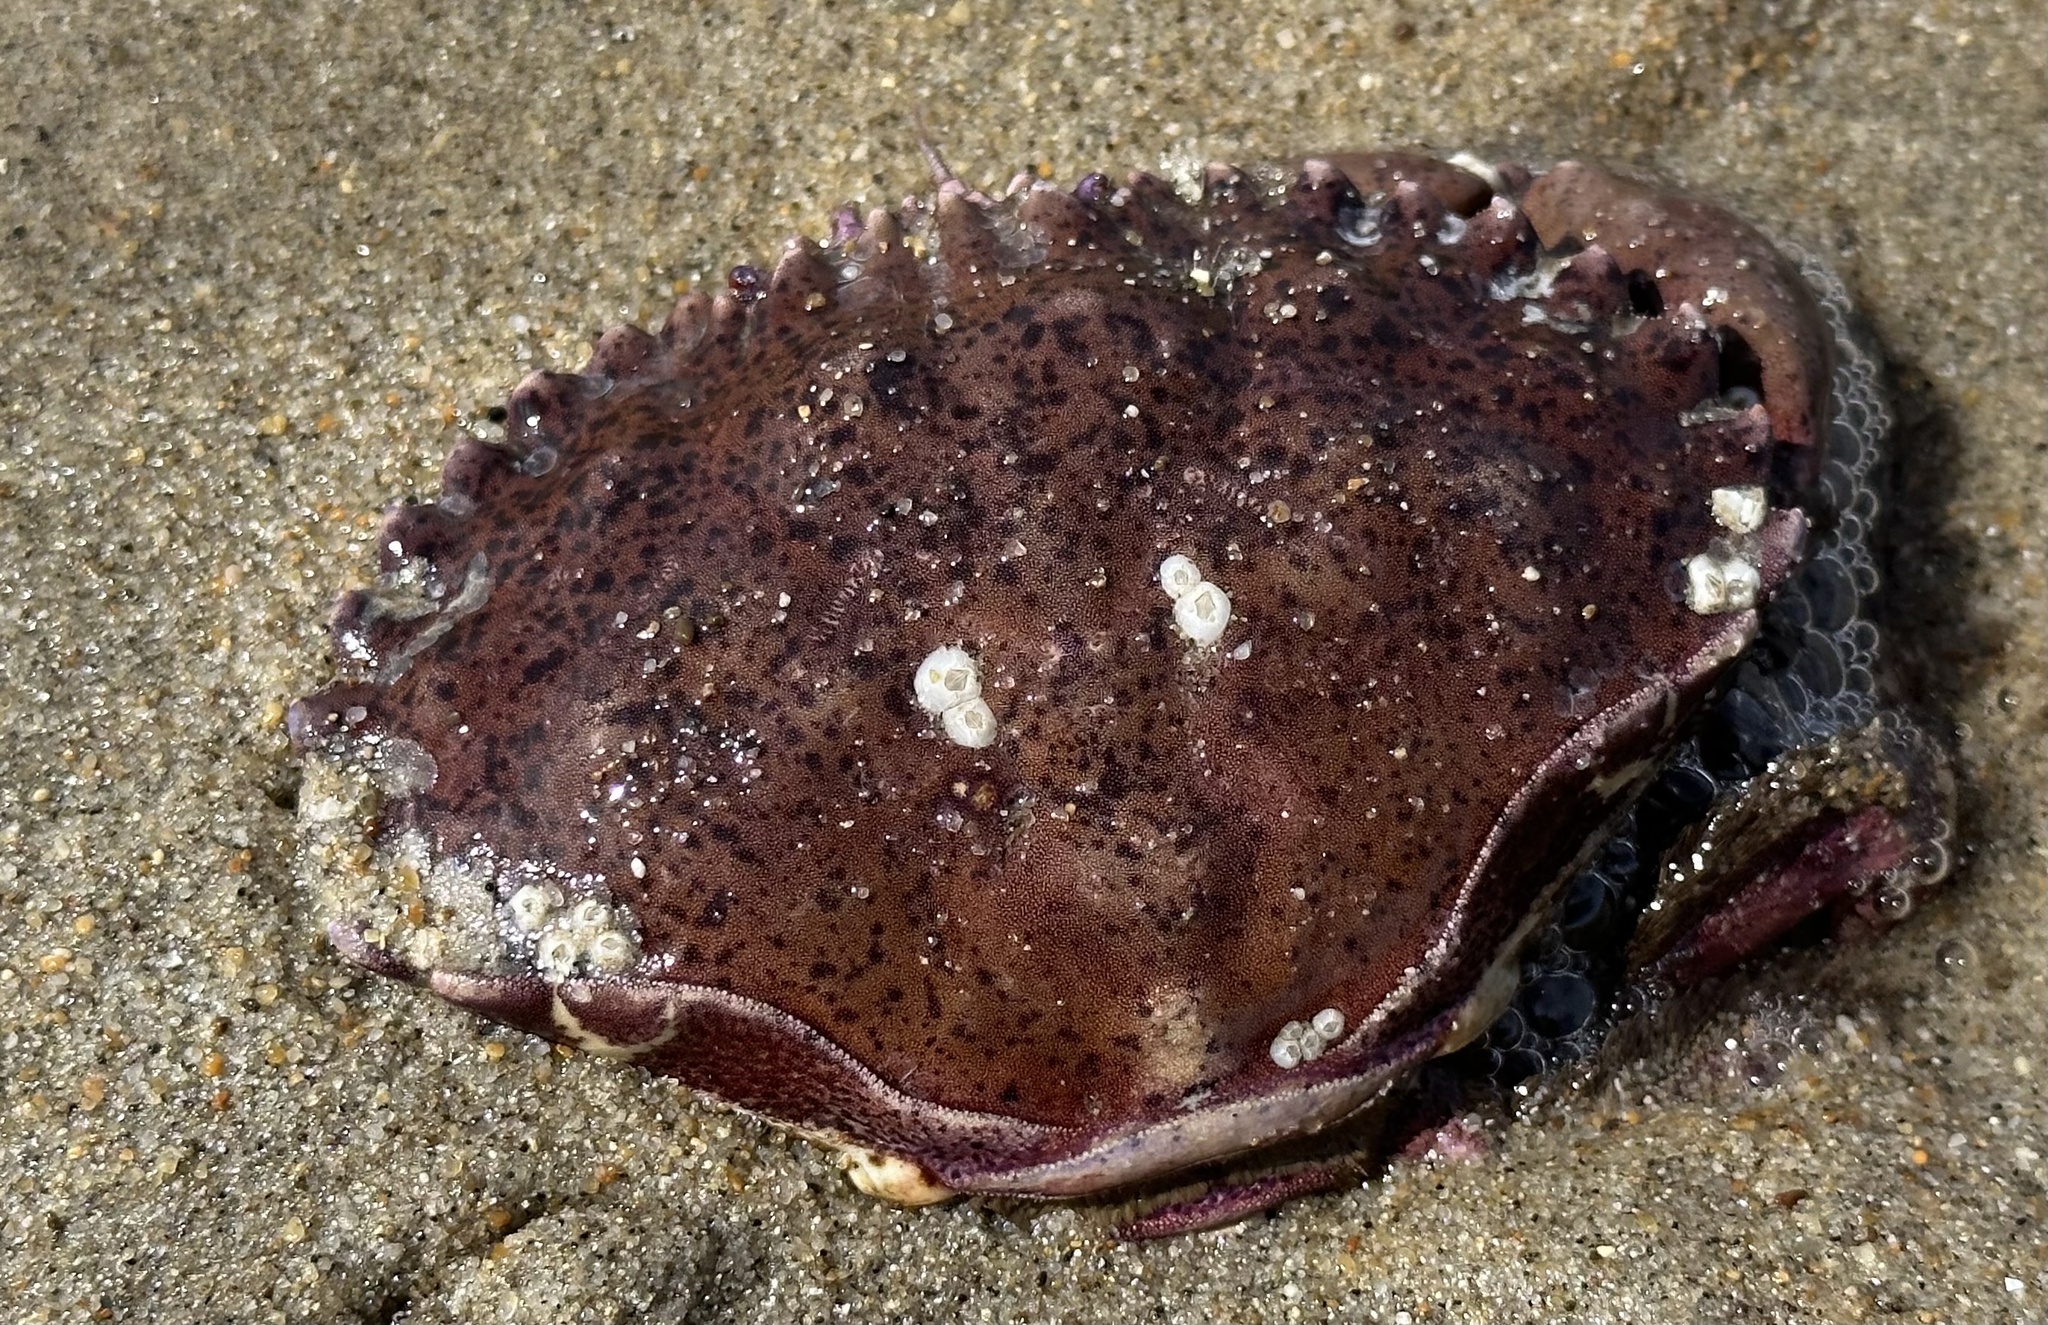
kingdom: Animalia
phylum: Arthropoda
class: Malacostraca
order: Decapoda
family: Cancridae
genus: Romaleon
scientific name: Romaleon antennarium
